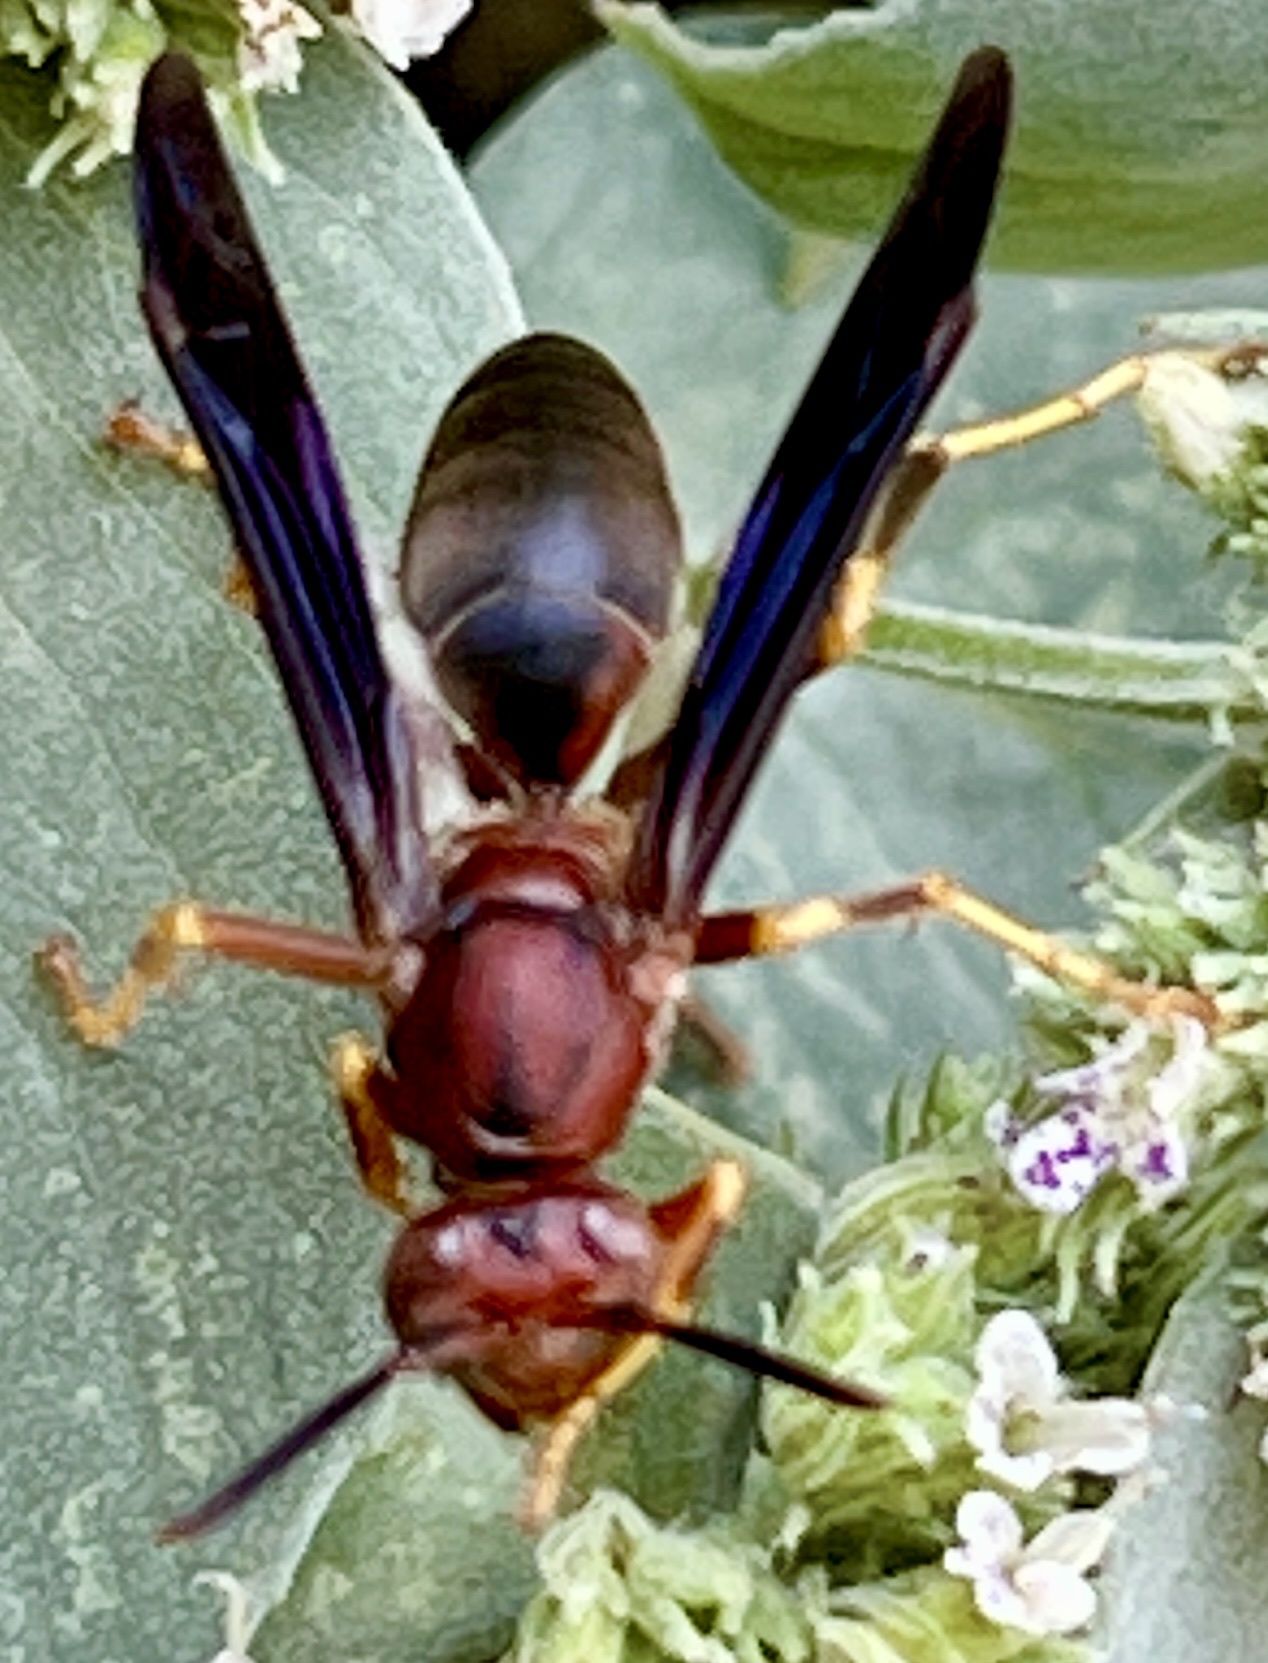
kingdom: Animalia
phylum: Arthropoda
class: Insecta
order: Hymenoptera
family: Eumenidae
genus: Polistes
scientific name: Polistes metricus
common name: Metric paper wasp
